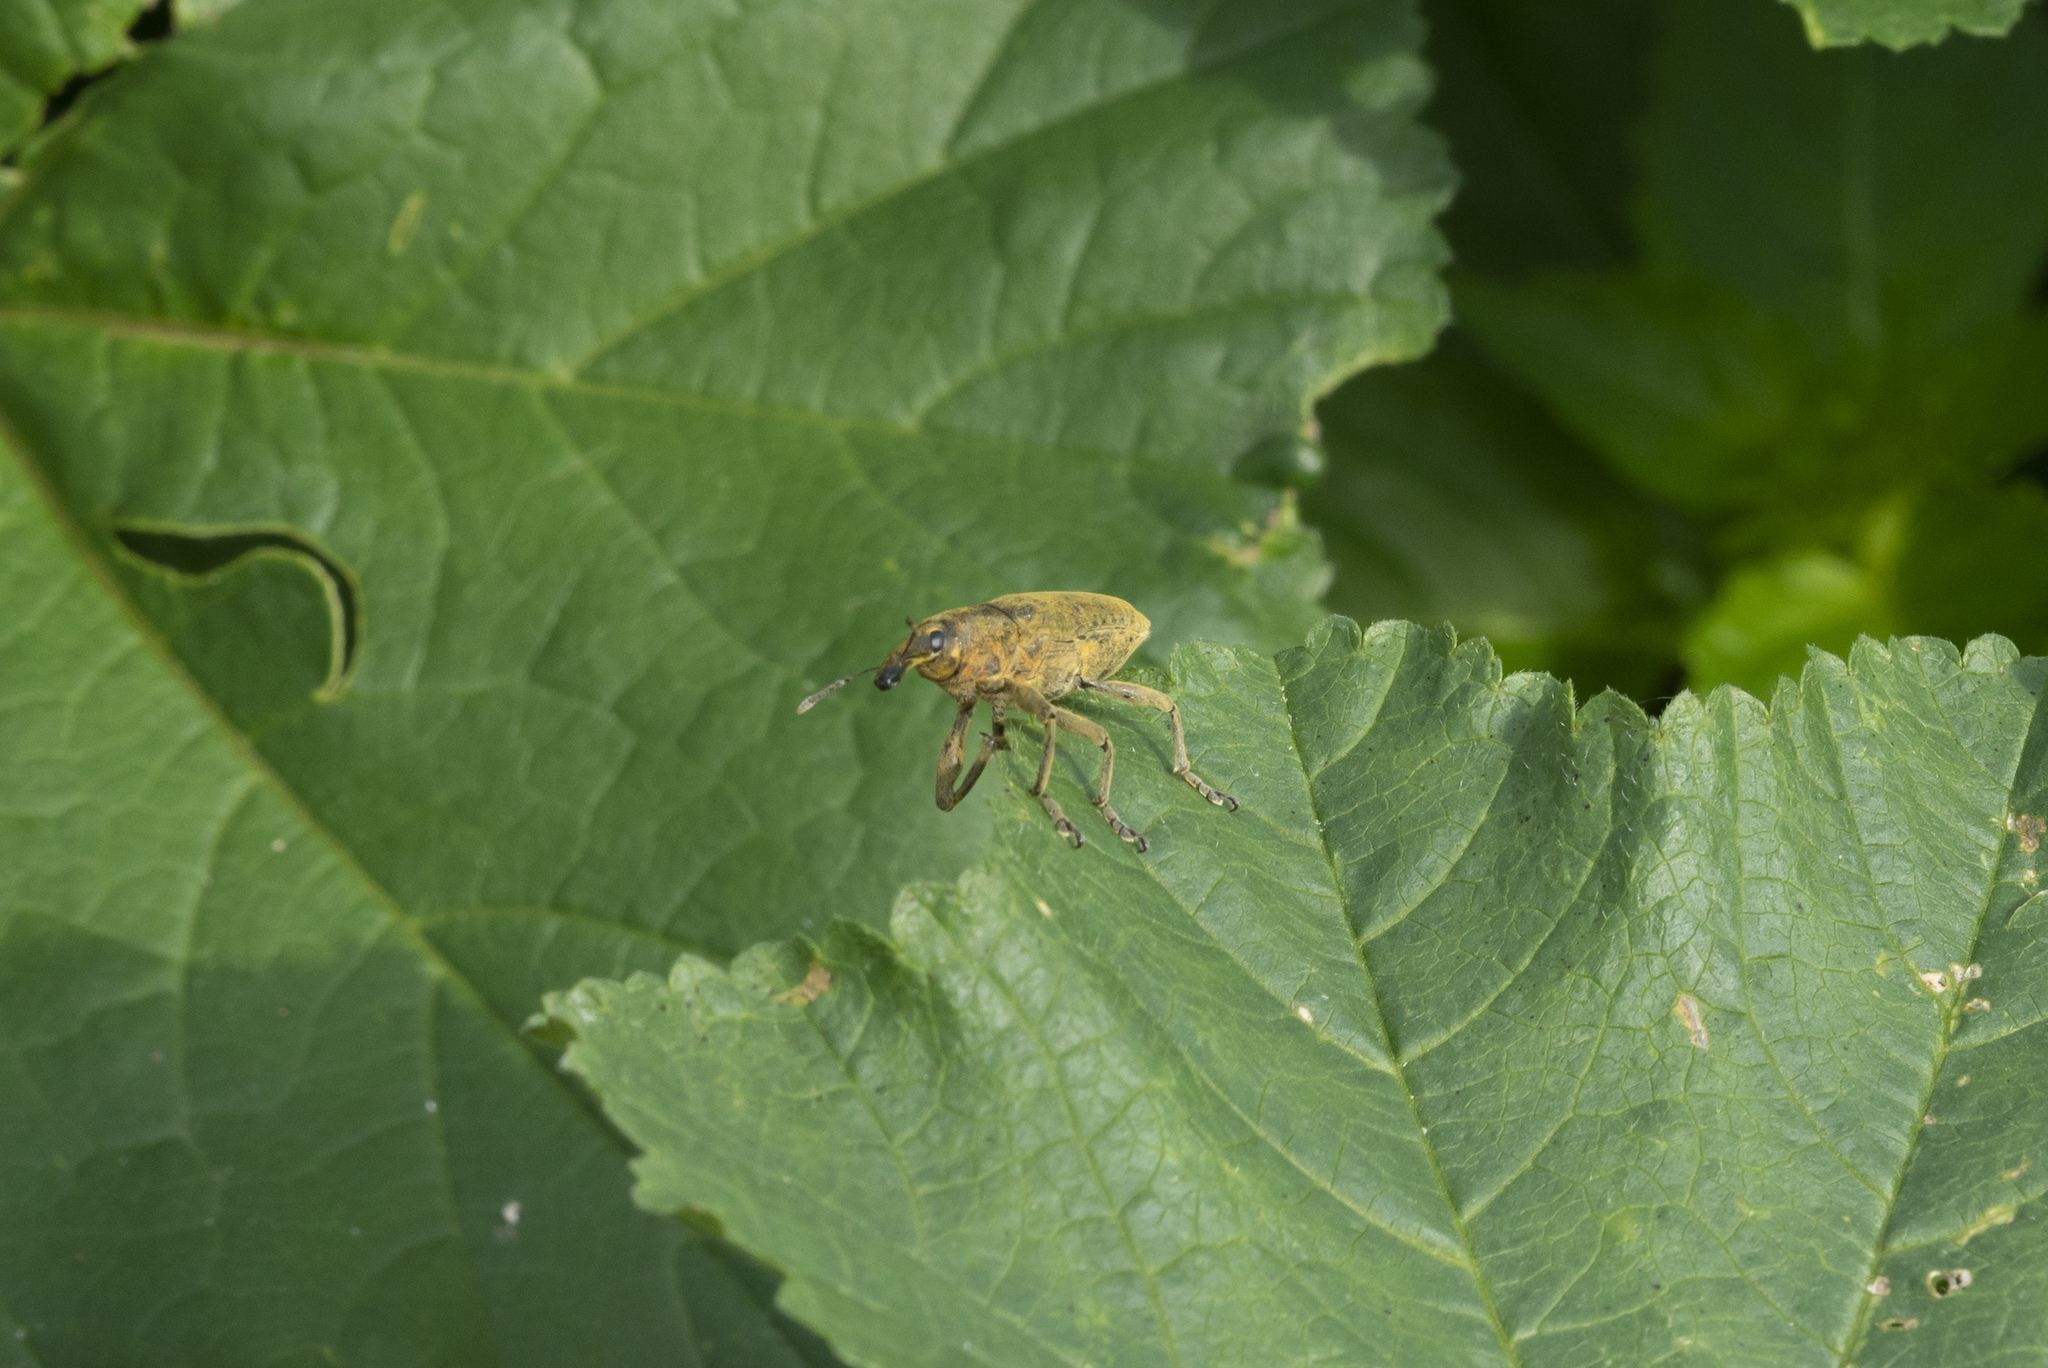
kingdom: Animalia
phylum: Arthropoda
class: Insecta
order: Coleoptera
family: Curculionidae
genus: Lixus
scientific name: Lixus pulverulentus
